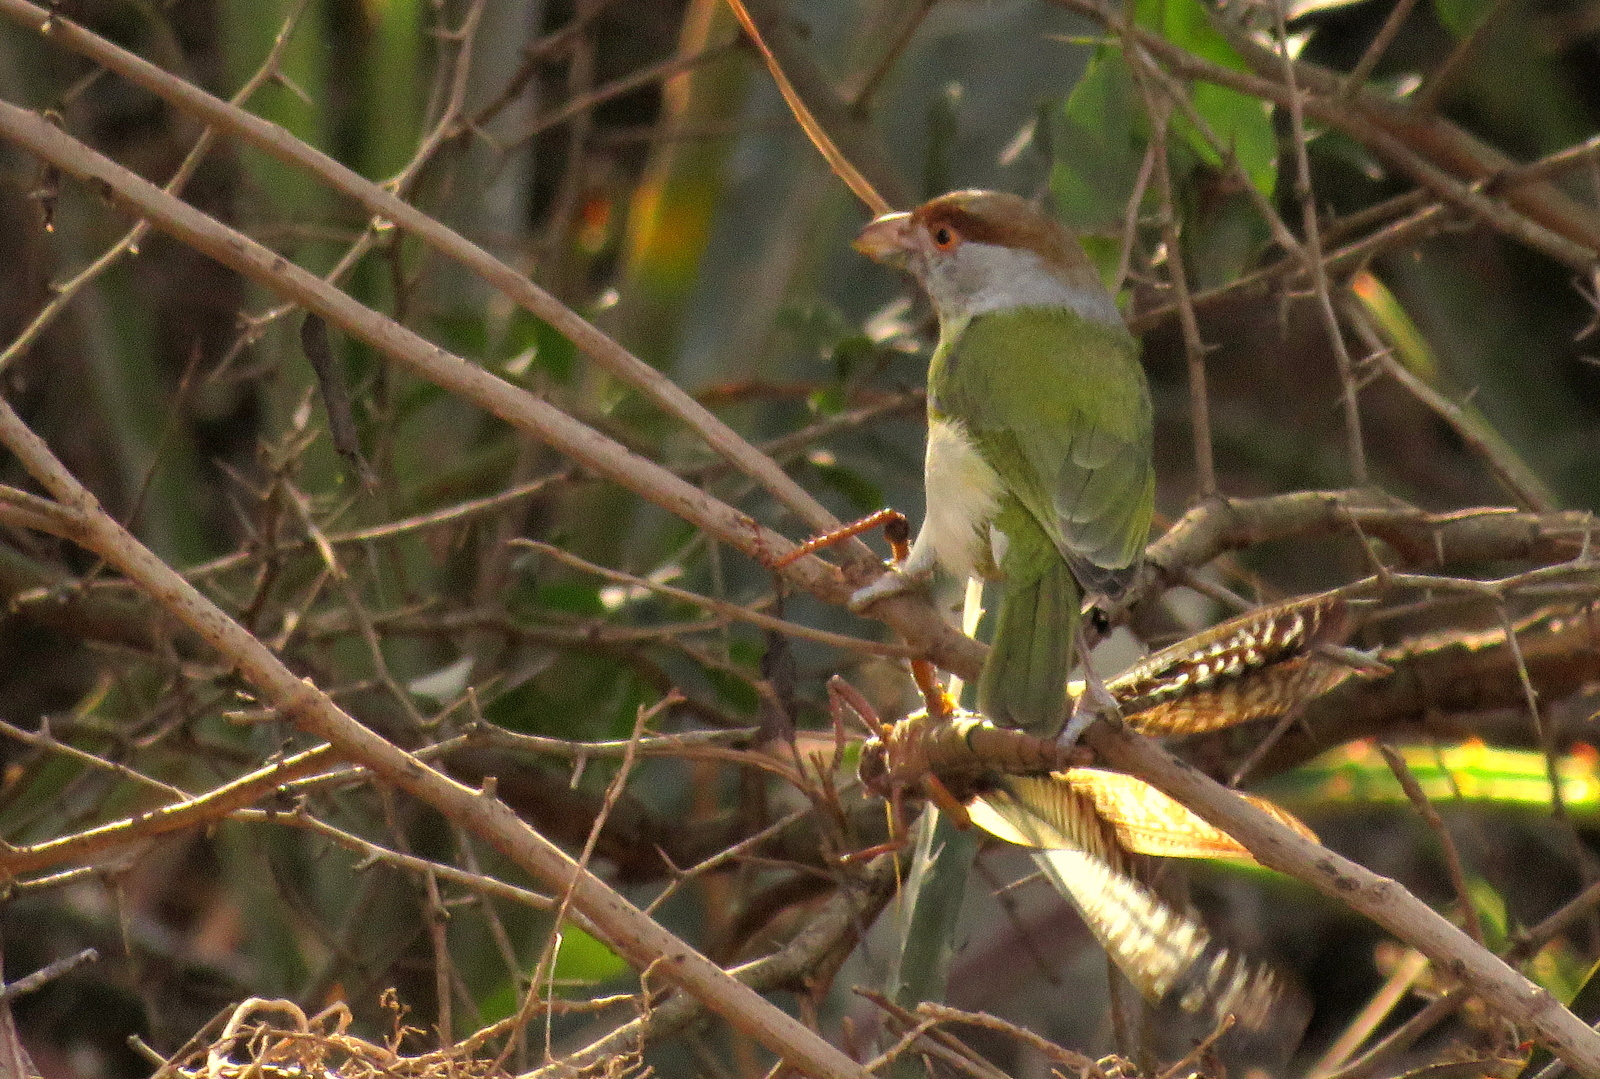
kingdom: Animalia
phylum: Chordata
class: Aves
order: Passeriformes
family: Vireonidae
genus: Cyclarhis
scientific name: Cyclarhis gujanensis
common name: Rufous-browed peppershrike
